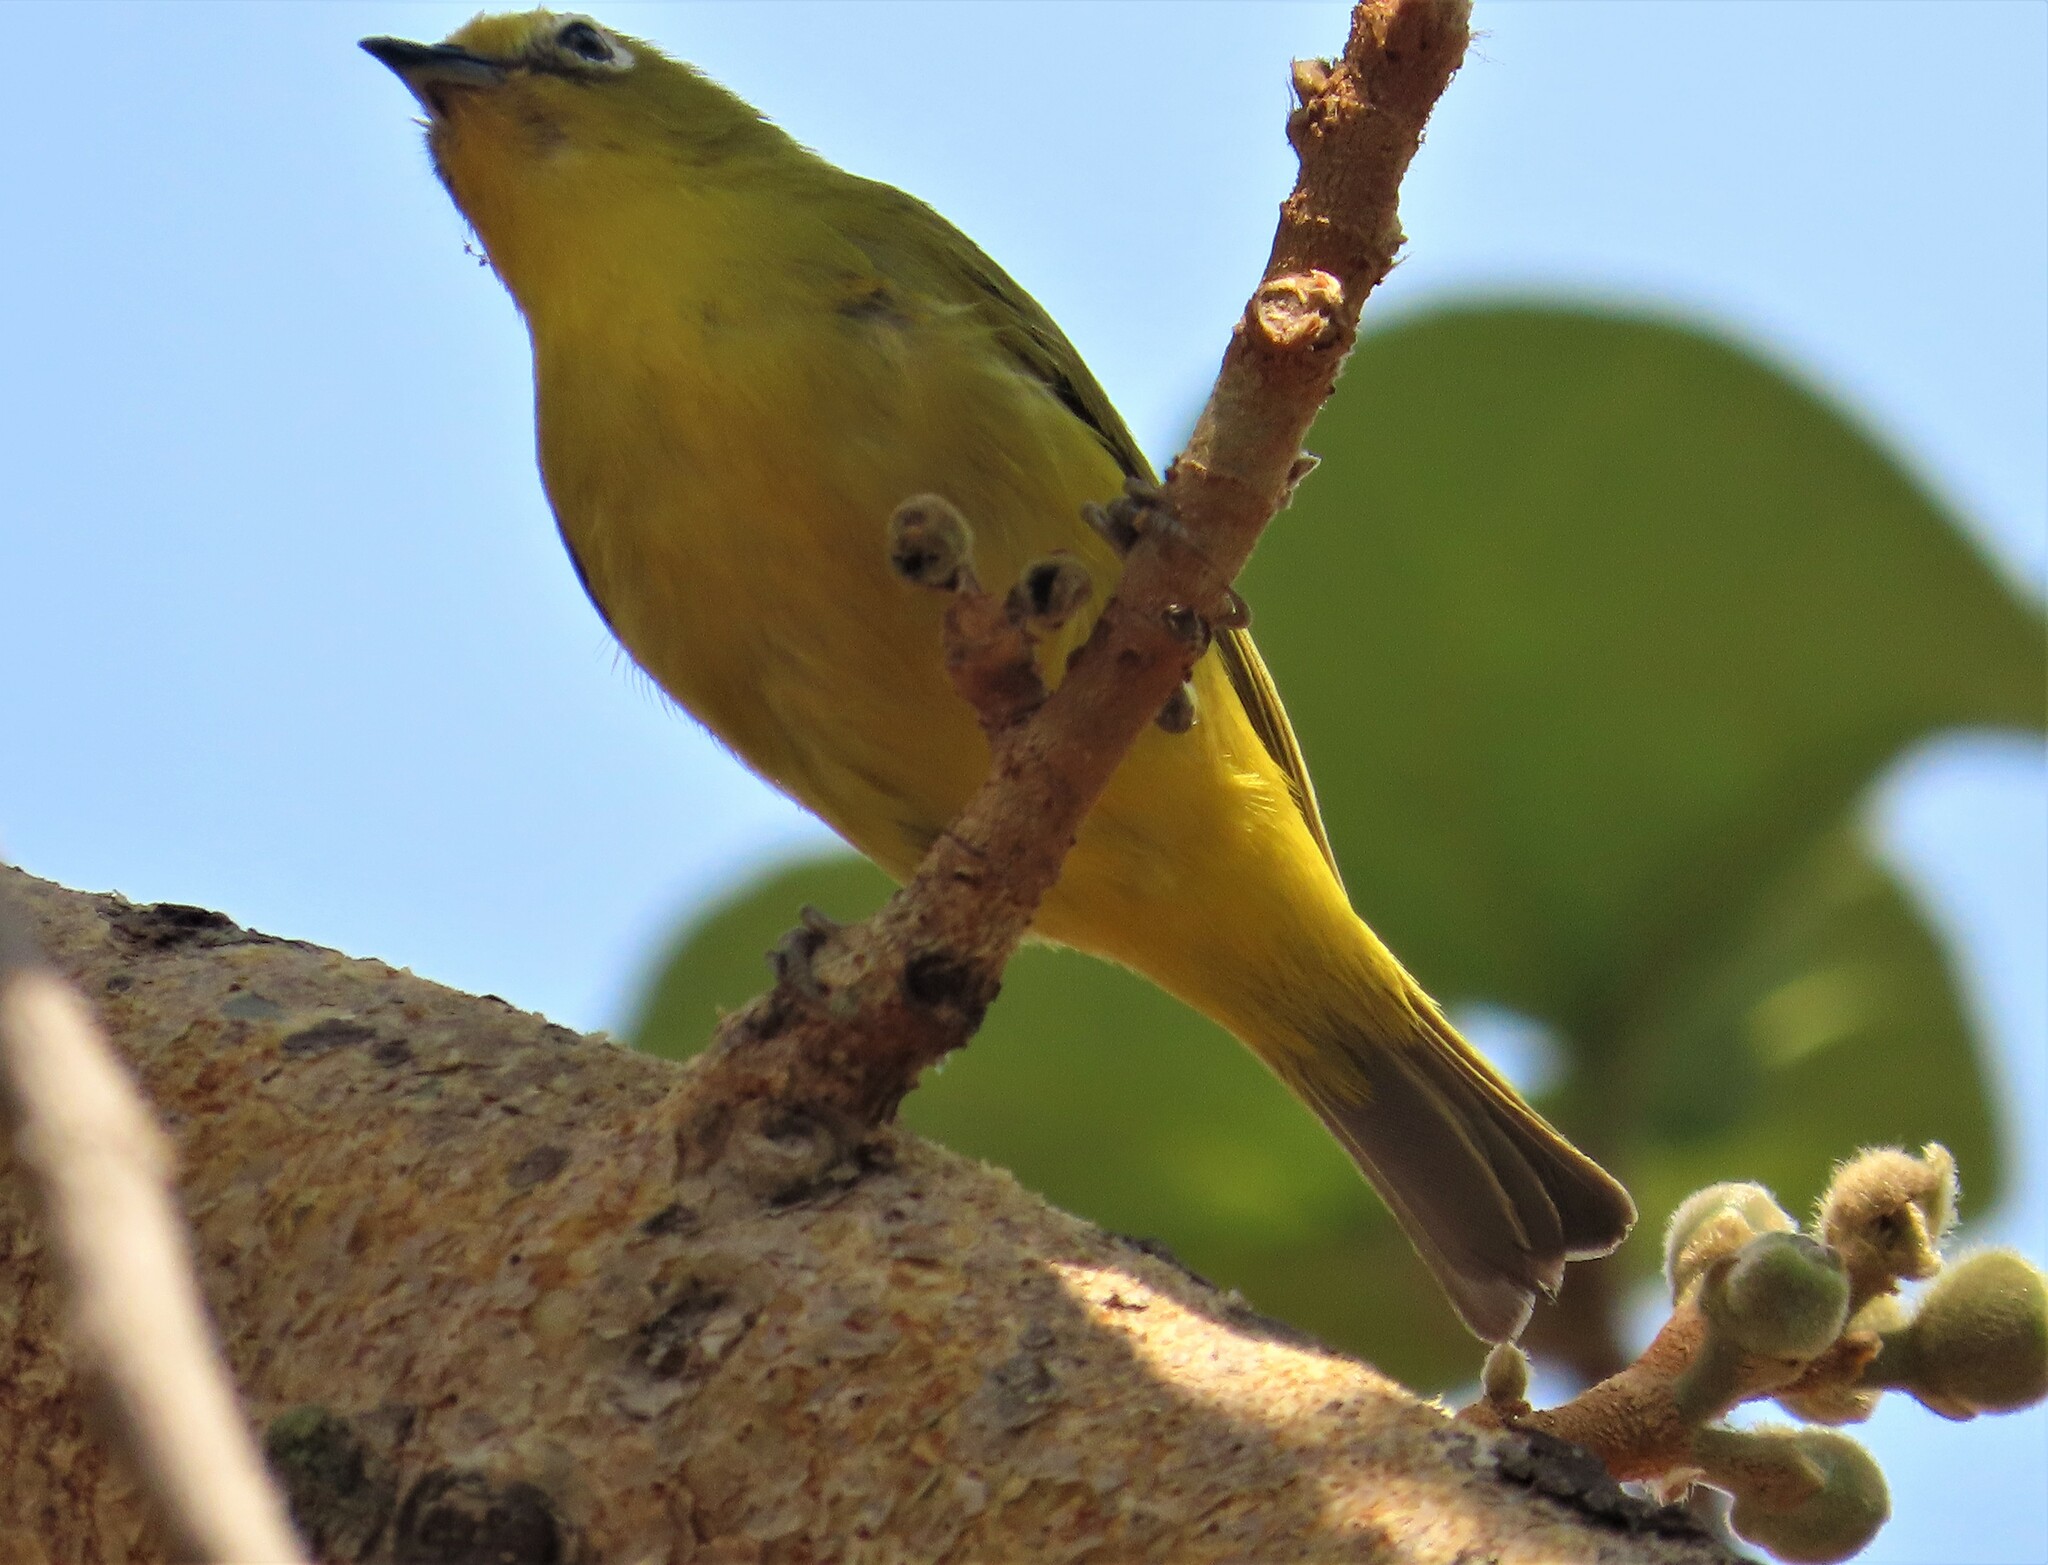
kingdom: Animalia
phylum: Chordata
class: Aves
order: Passeriformes
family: Zosteropidae
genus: Zosterops
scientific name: Zosterops anderssoni
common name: Southern yellow white-eye
